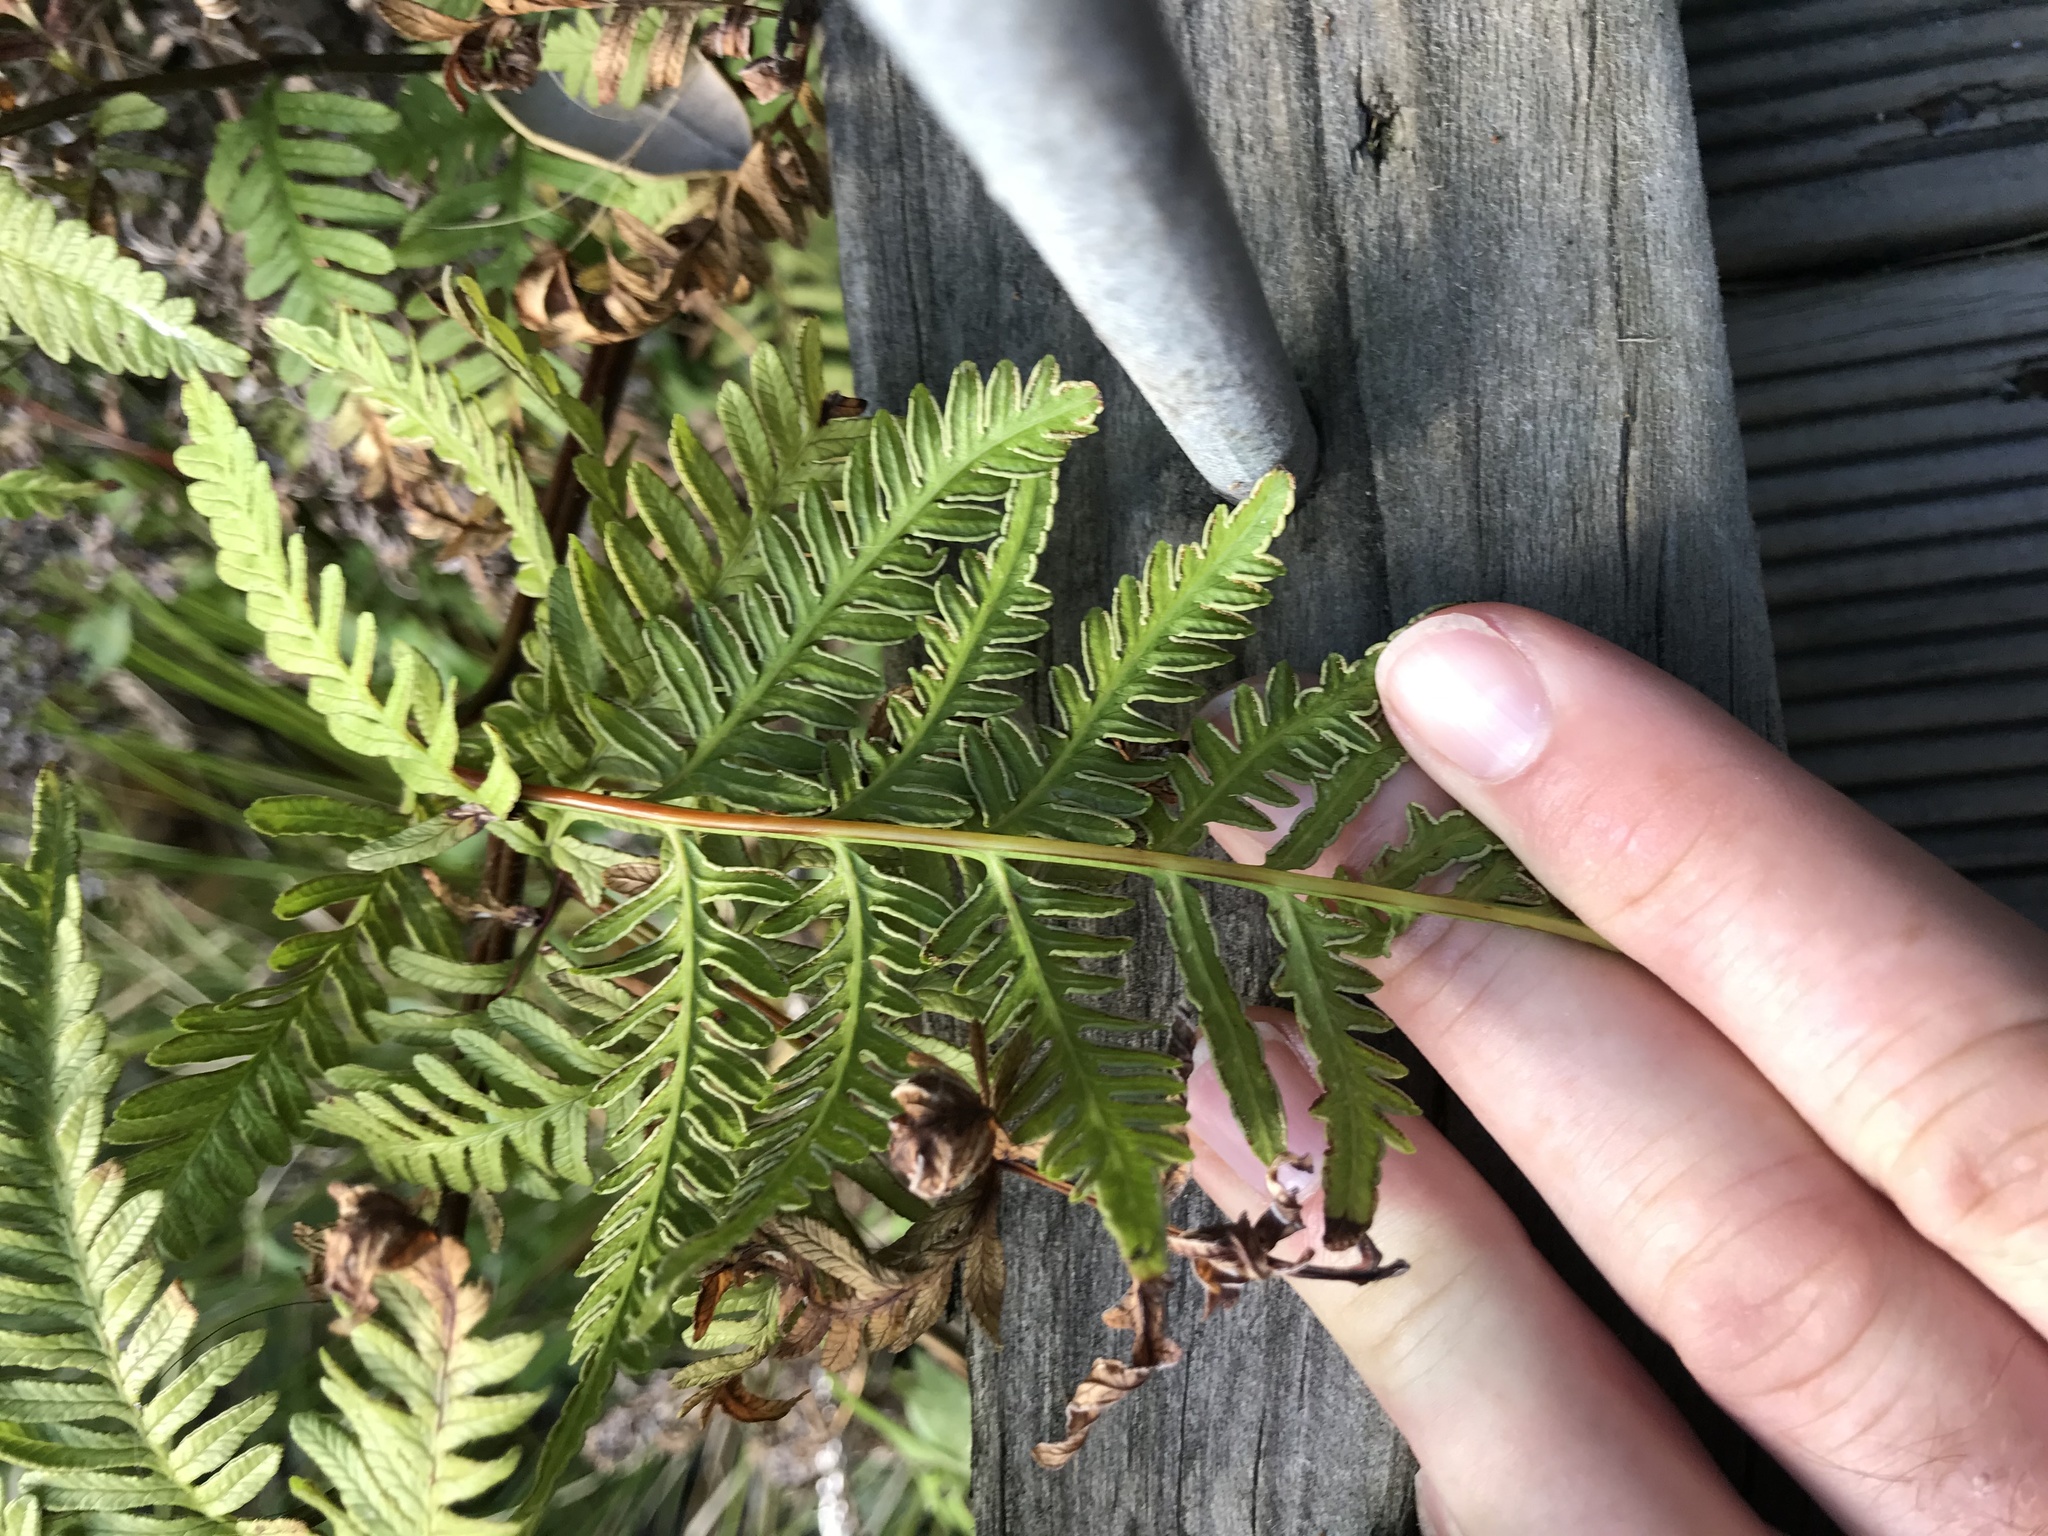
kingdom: Plantae
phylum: Tracheophyta
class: Polypodiopsida
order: Polypodiales
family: Pteridaceae
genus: Pteris
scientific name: Pteris tremula
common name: Australian brake
